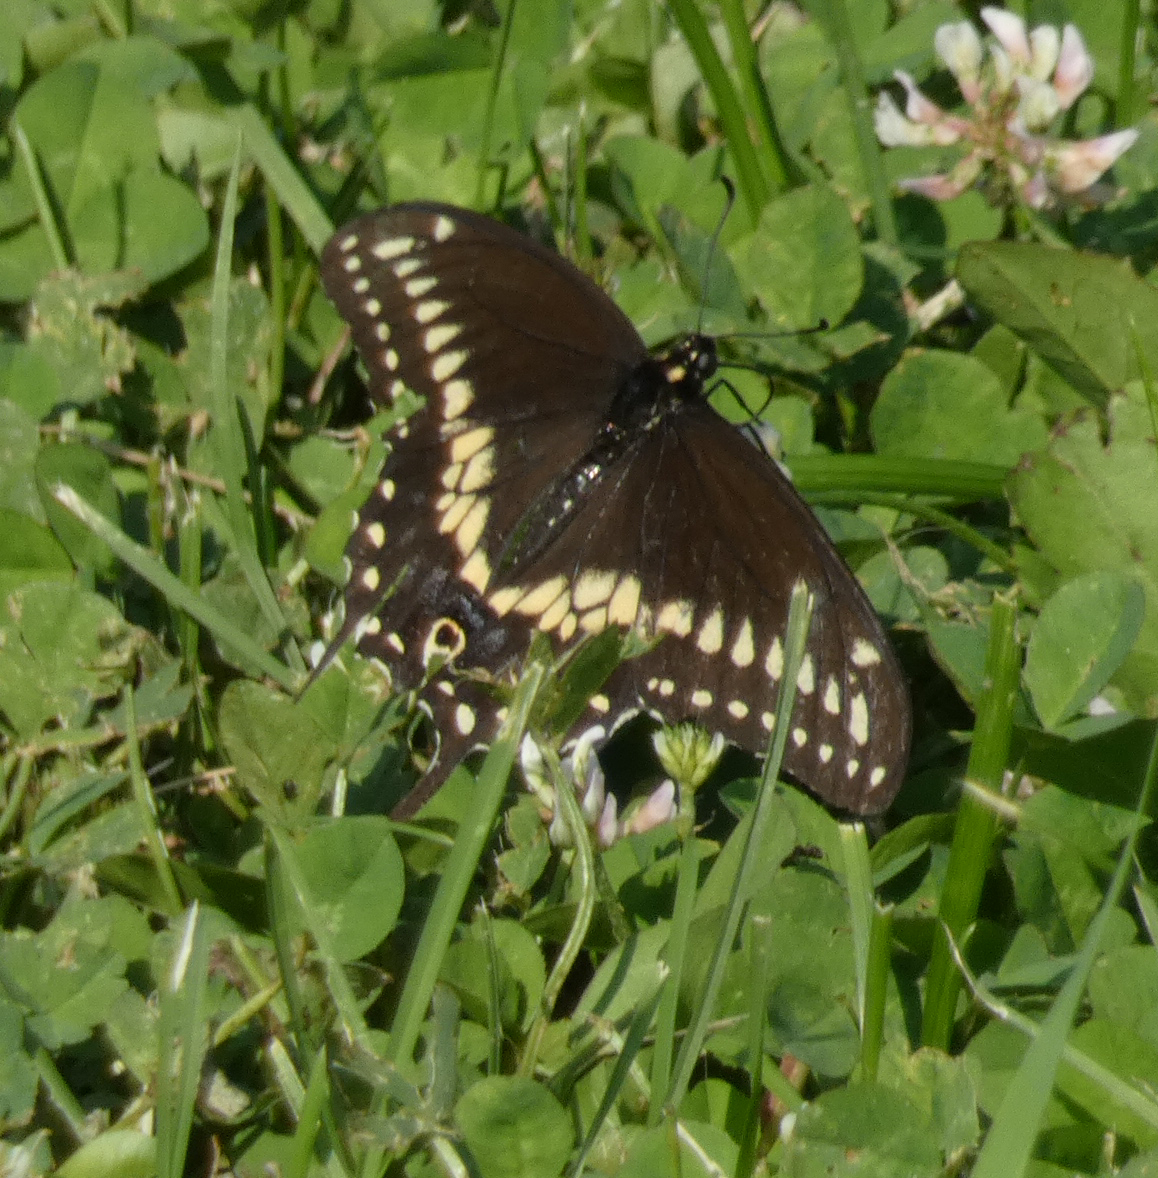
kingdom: Animalia
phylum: Arthropoda
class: Insecta
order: Lepidoptera
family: Papilionidae
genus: Papilio
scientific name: Papilio polyxenes
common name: Black swallowtail
